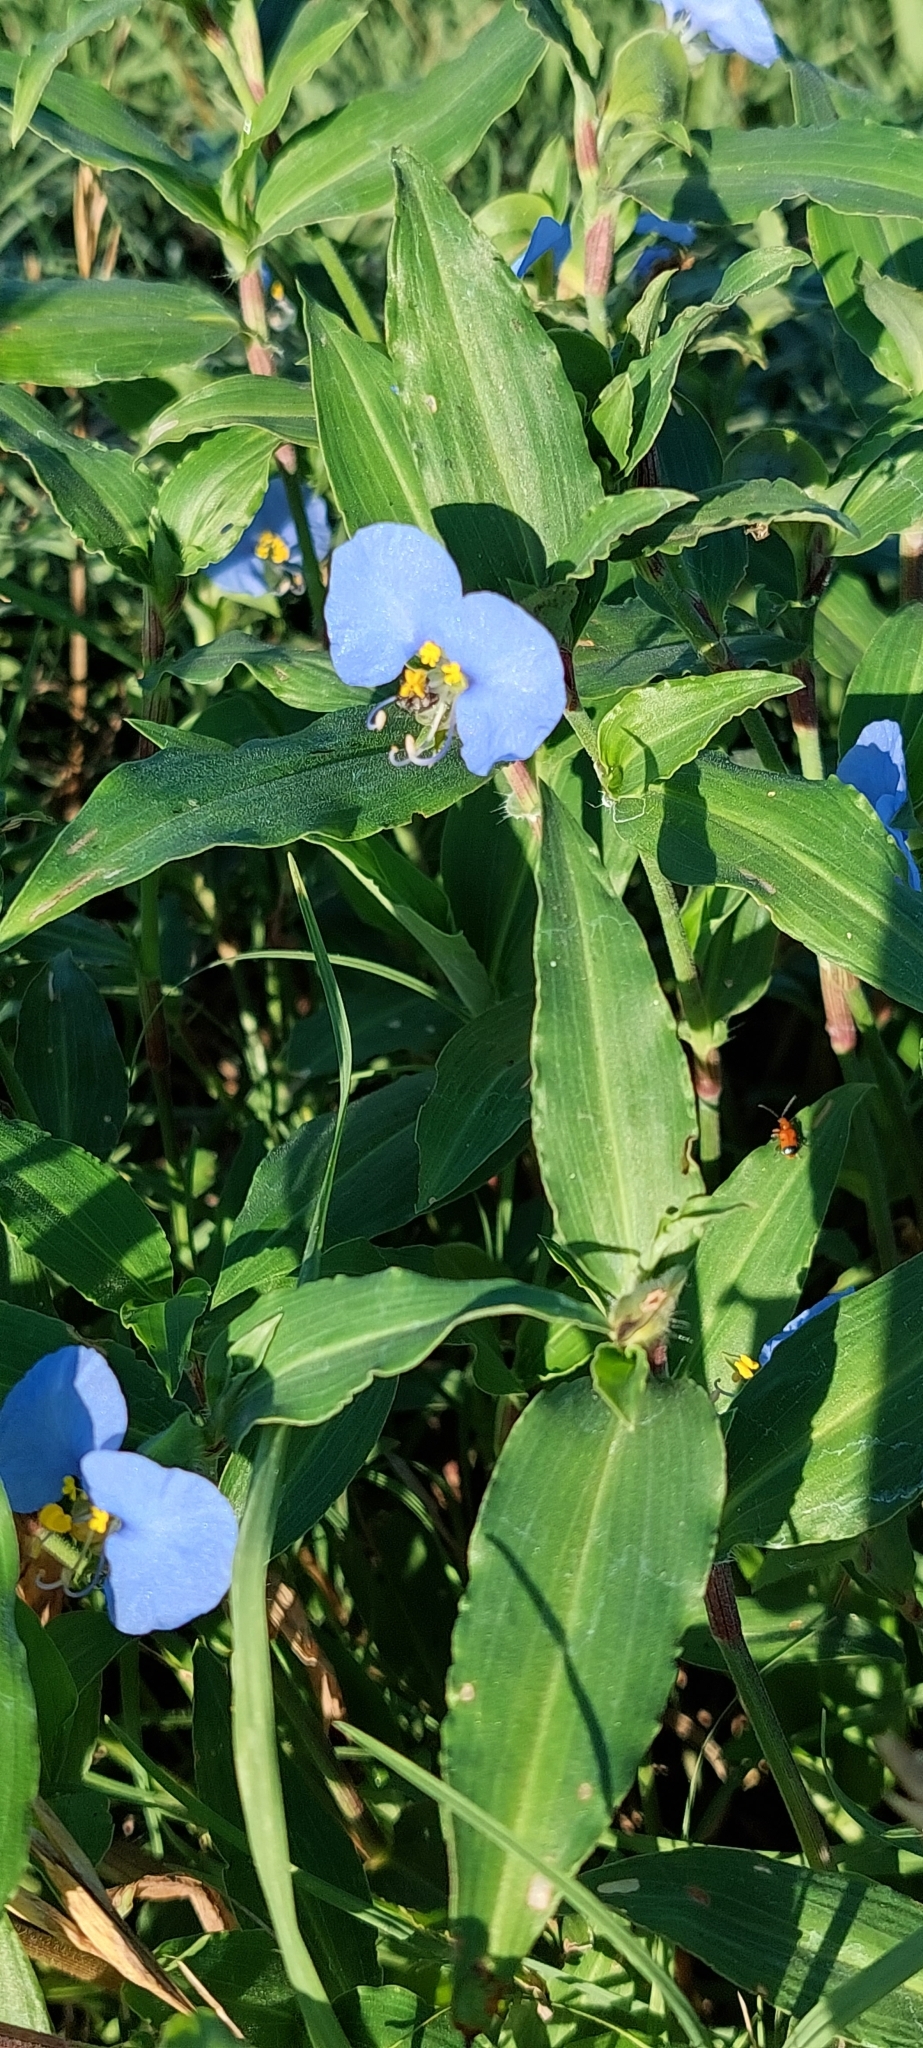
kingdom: Plantae
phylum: Tracheophyta
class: Liliopsida
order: Commelinales
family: Commelinaceae
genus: Commelina
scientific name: Commelina erecta
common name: Blousel blommetjie
